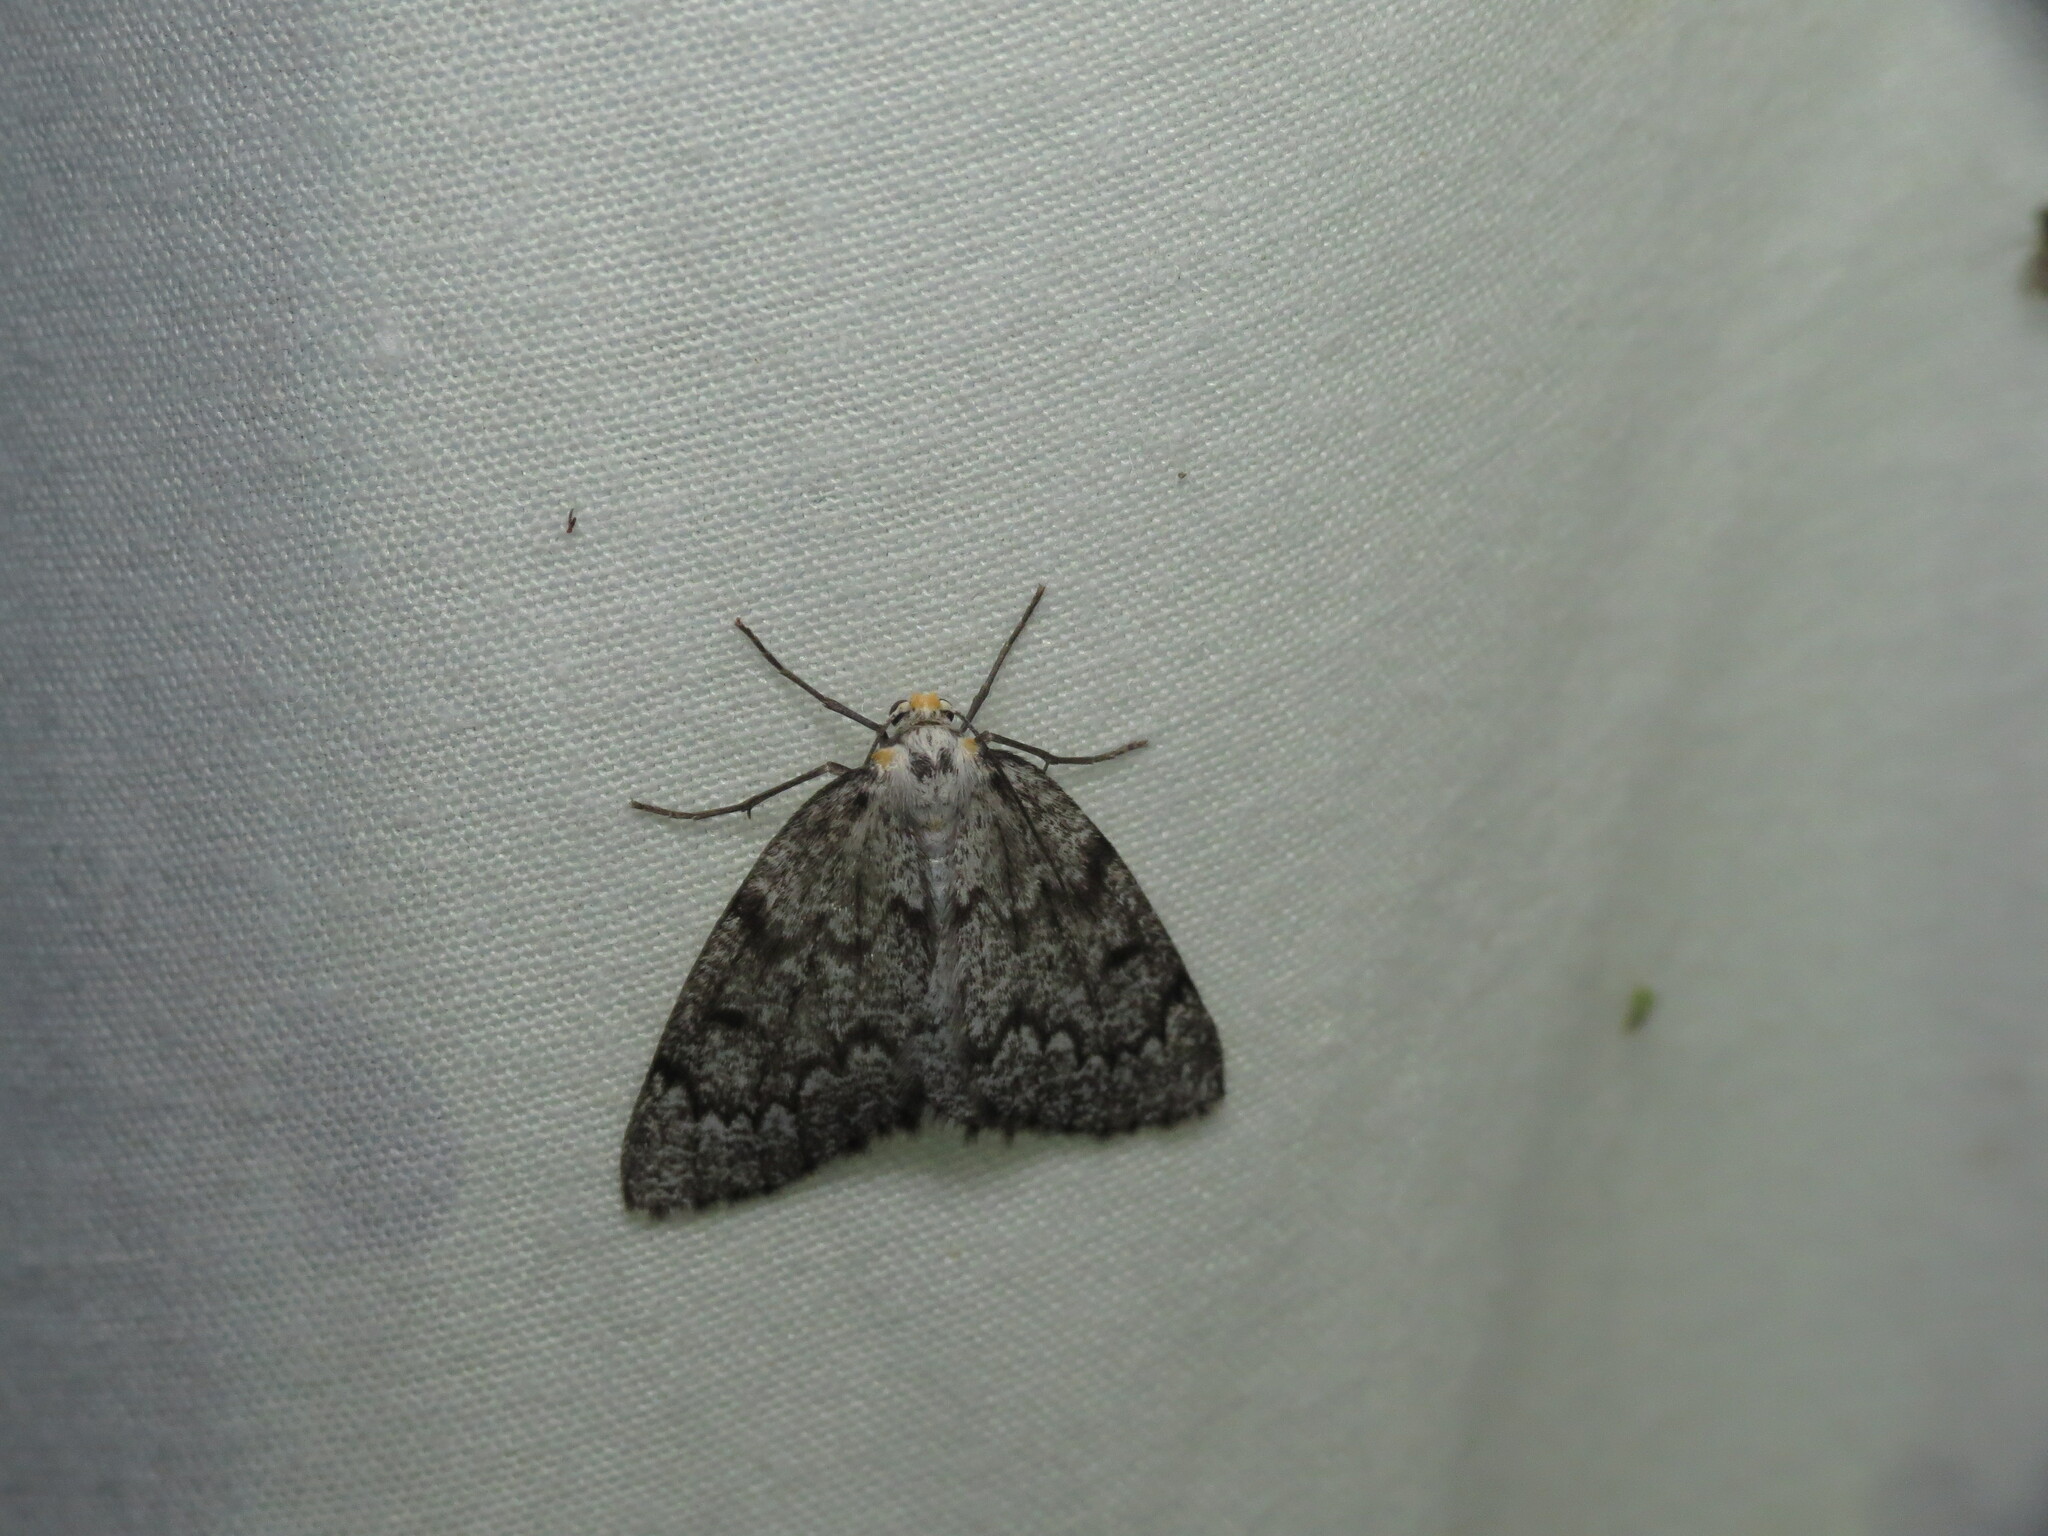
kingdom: Animalia
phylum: Arthropoda
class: Insecta
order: Lepidoptera
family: Geometridae
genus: Nepytia
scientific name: Nepytia canosaria
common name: False hemlock looper
